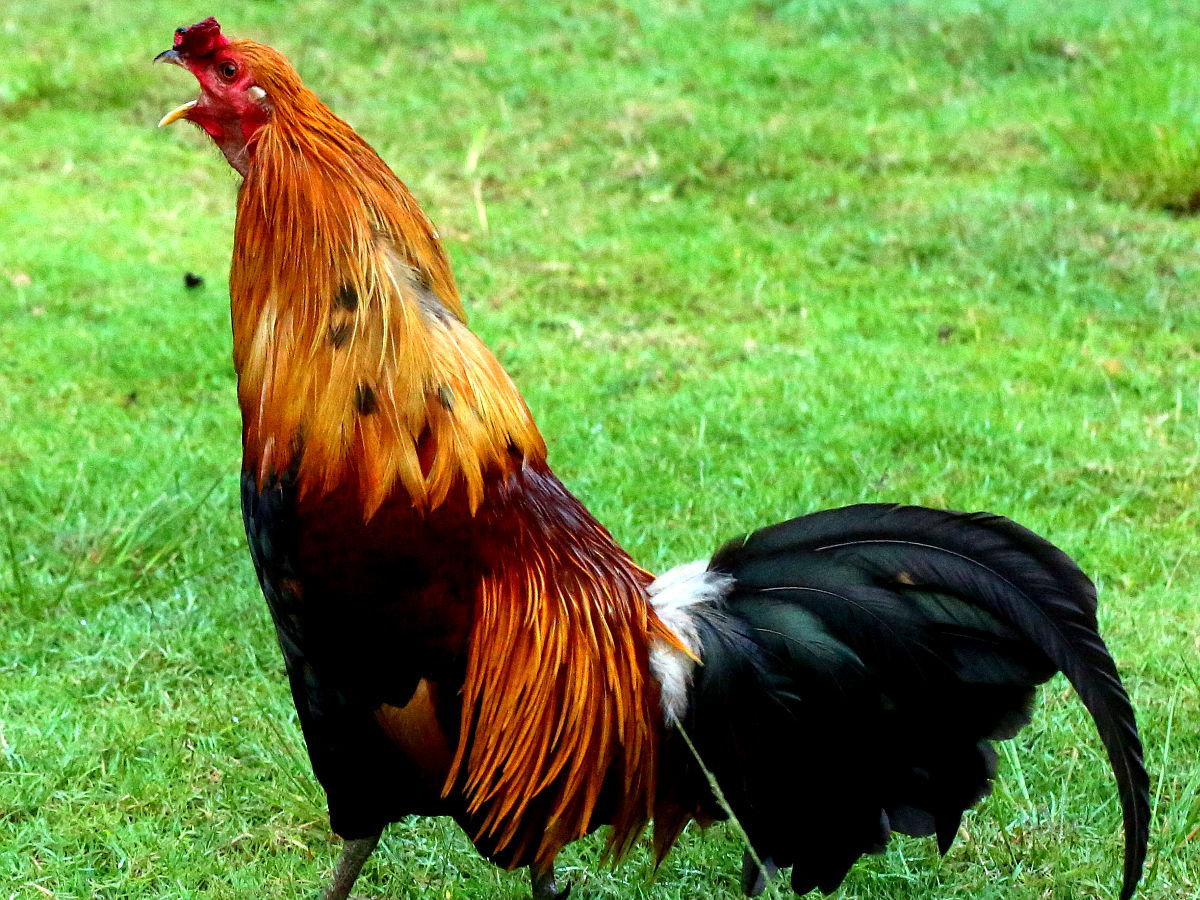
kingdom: Animalia
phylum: Chordata
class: Aves
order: Galliformes
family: Phasianidae
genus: Gallus
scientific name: Gallus gallus
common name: Red junglefowl
